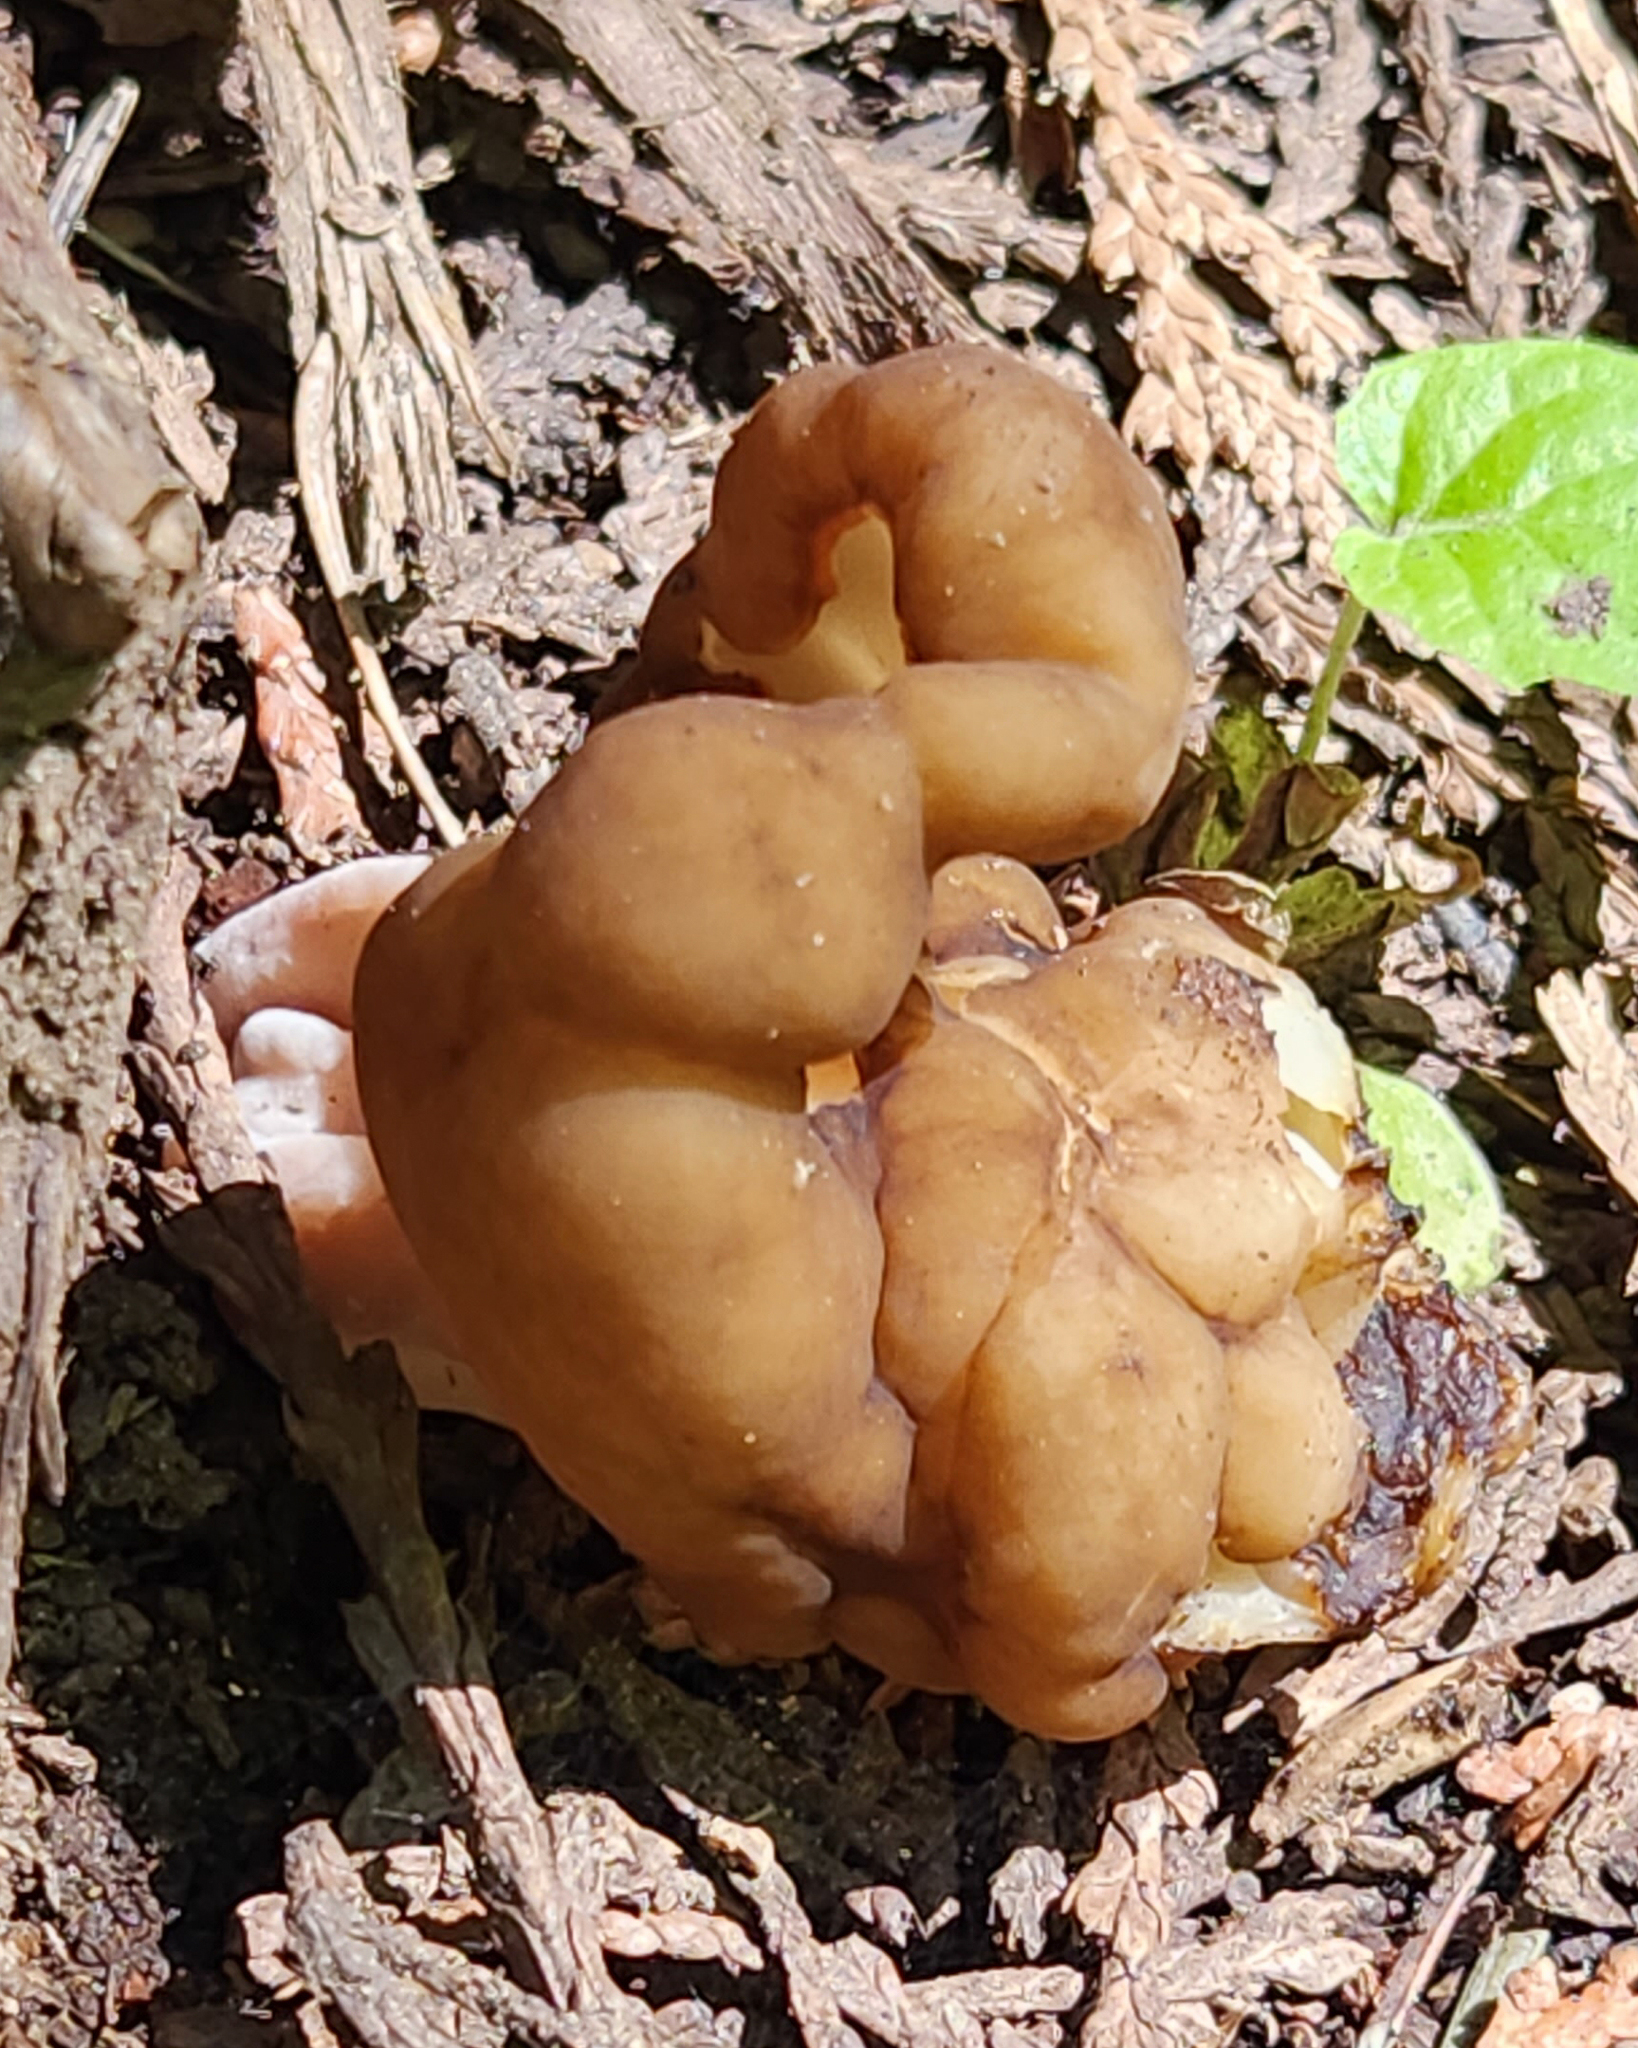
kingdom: Fungi
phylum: Ascomycota
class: Pezizomycetes
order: Pezizales
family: Discinaceae
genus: Gyromitra
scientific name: Gyromitra californica
